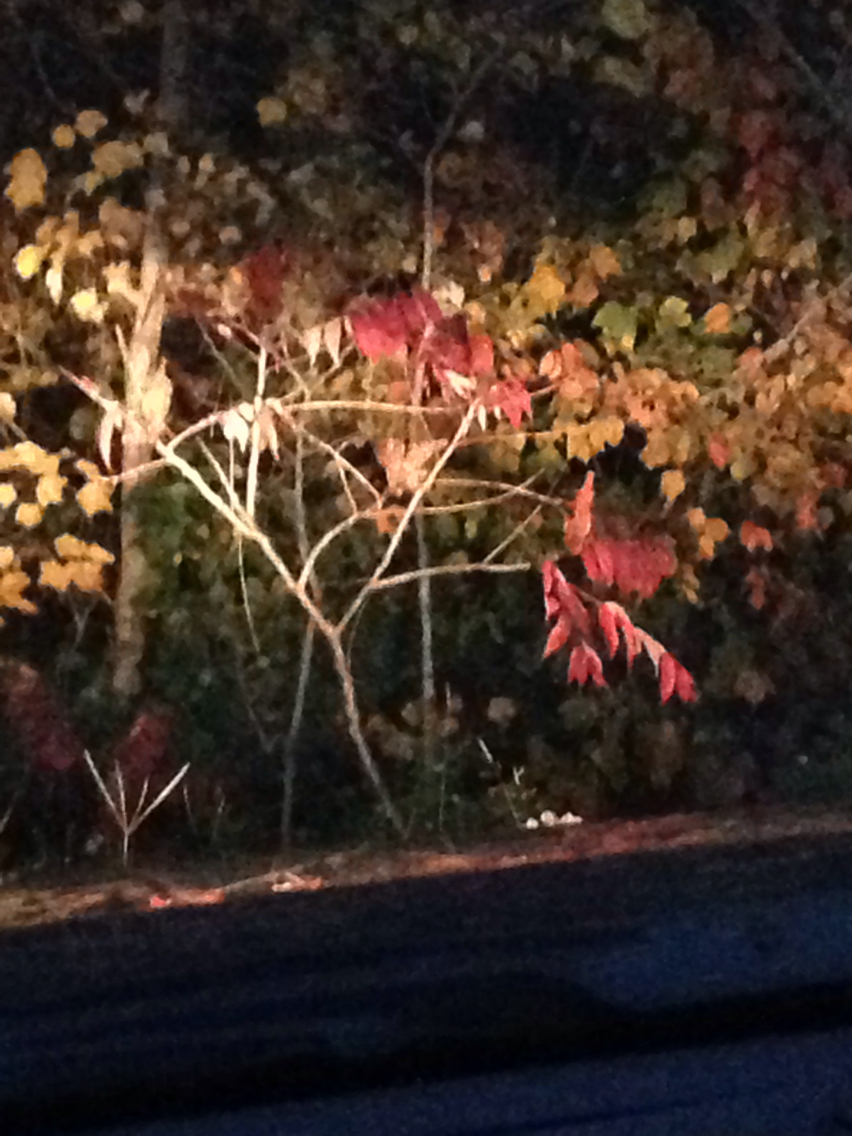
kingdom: Plantae
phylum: Tracheophyta
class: Magnoliopsida
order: Sapindales
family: Anacardiaceae
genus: Rhus
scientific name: Rhus typhina
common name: Staghorn sumac
